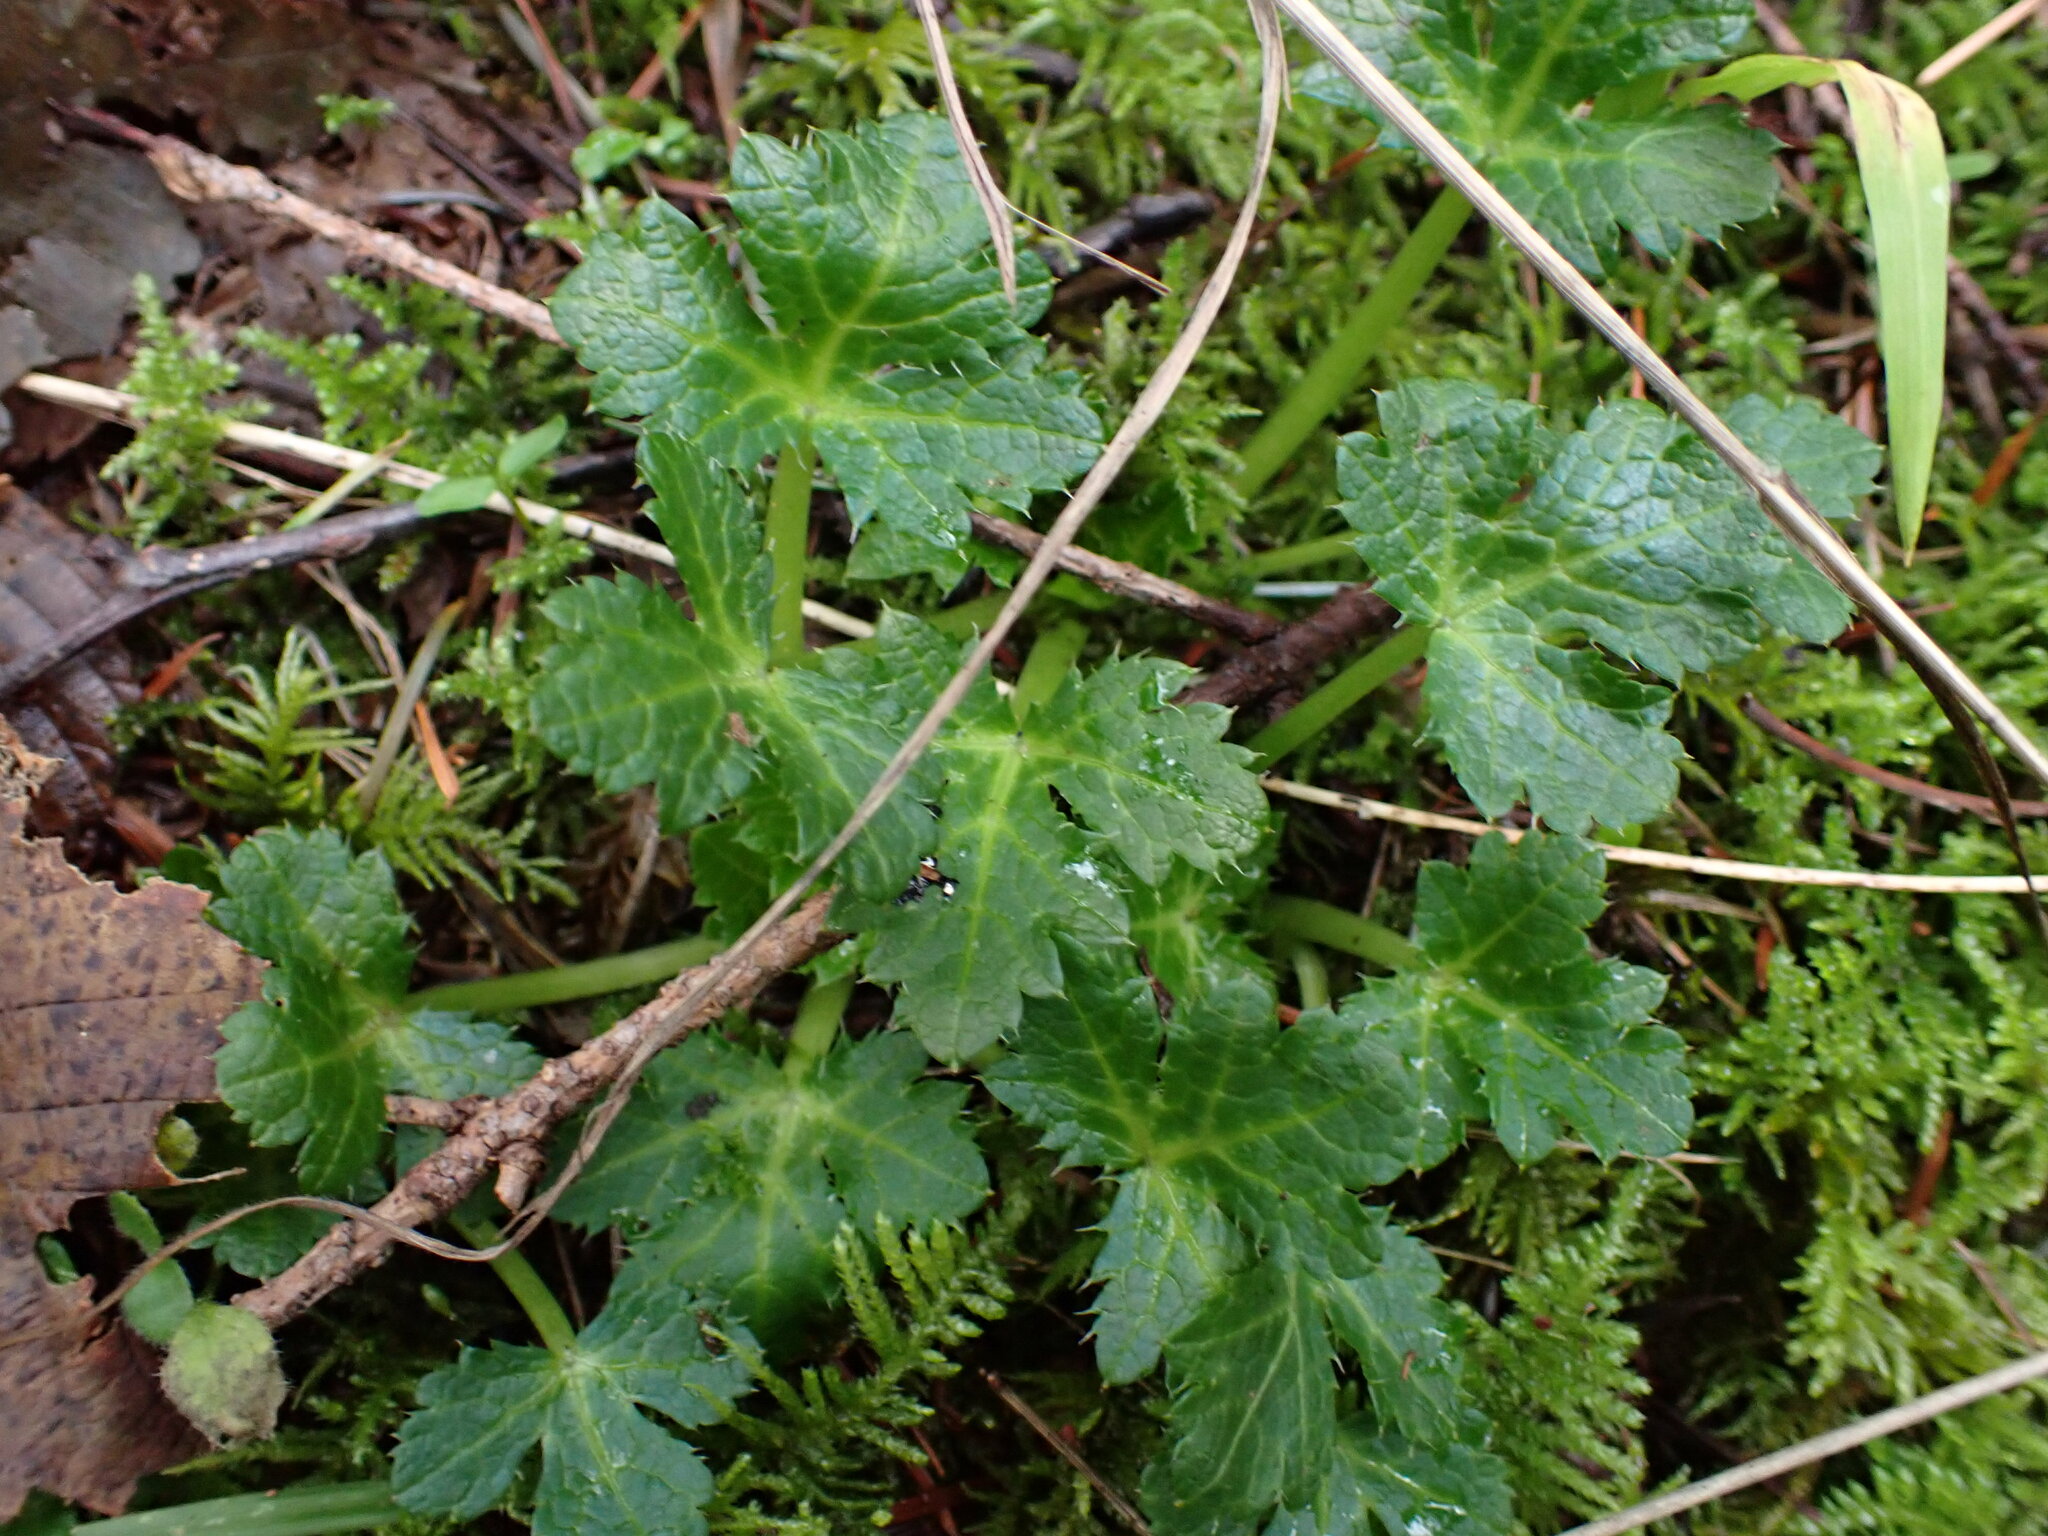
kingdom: Plantae
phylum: Tracheophyta
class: Magnoliopsida
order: Apiales
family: Apiaceae
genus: Sanicula
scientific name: Sanicula crassicaulis
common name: Western snakeroot
